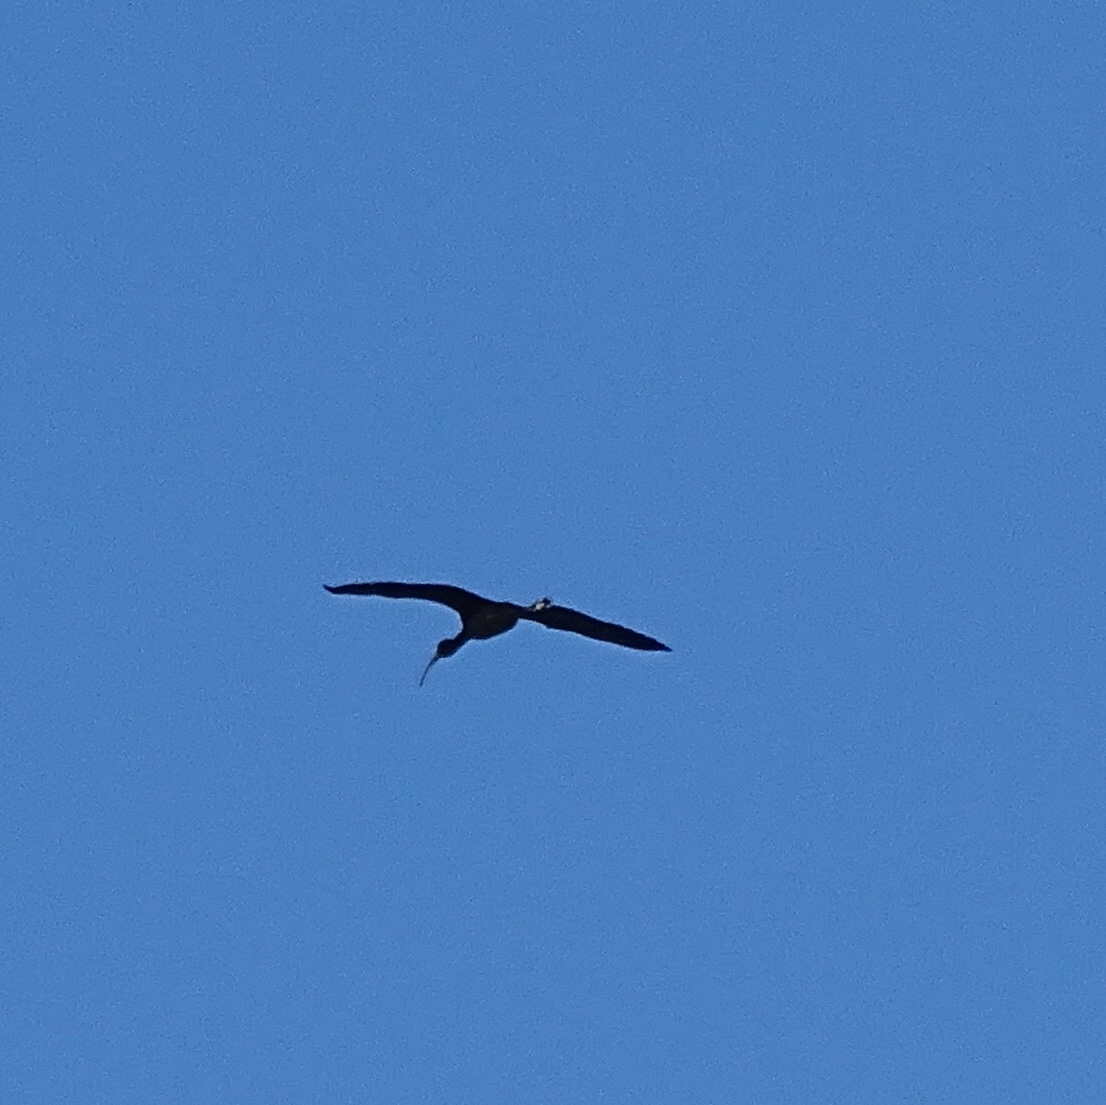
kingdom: Animalia
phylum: Chordata
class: Aves
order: Pelecaniformes
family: Threskiornithidae
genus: Plegadis
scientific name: Plegadis chihi
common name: White-faced ibis
